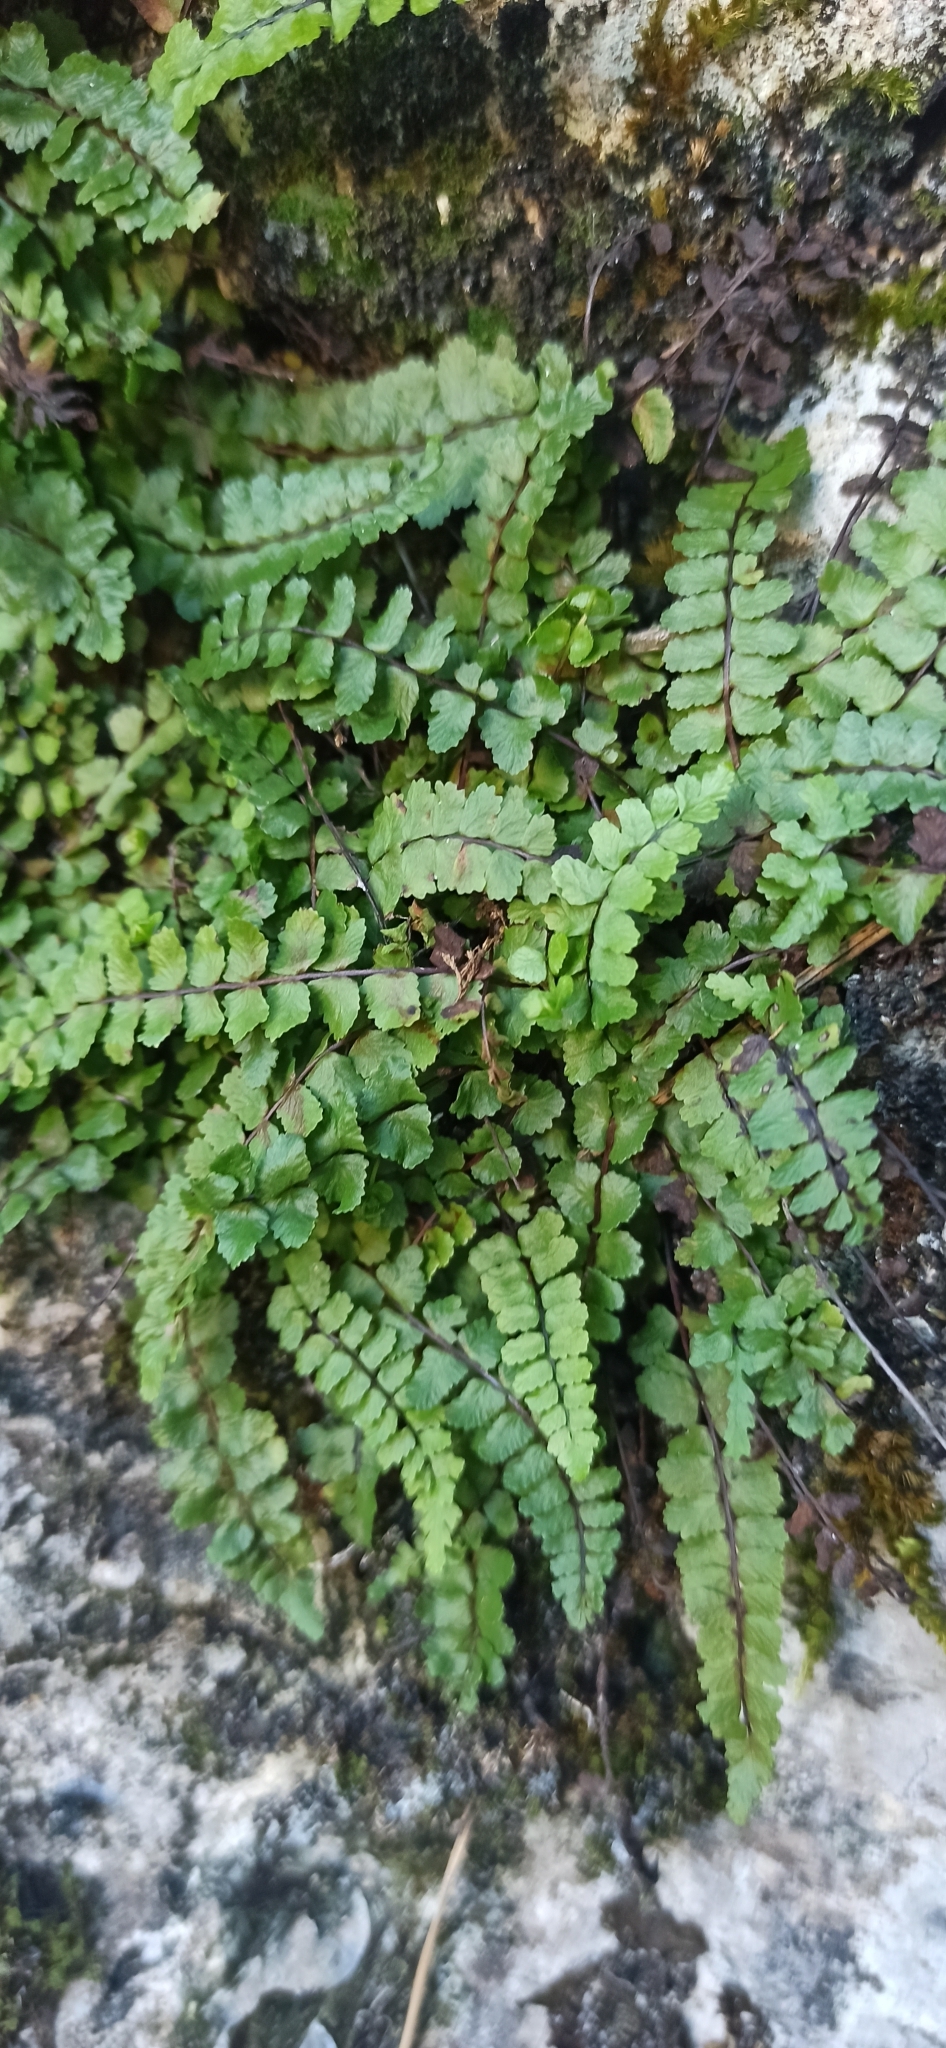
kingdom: Plantae
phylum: Tracheophyta
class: Polypodiopsida
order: Polypodiales
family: Aspleniaceae
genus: Asplenium
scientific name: Asplenium trichomanes
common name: Maidenhair spleenwort
